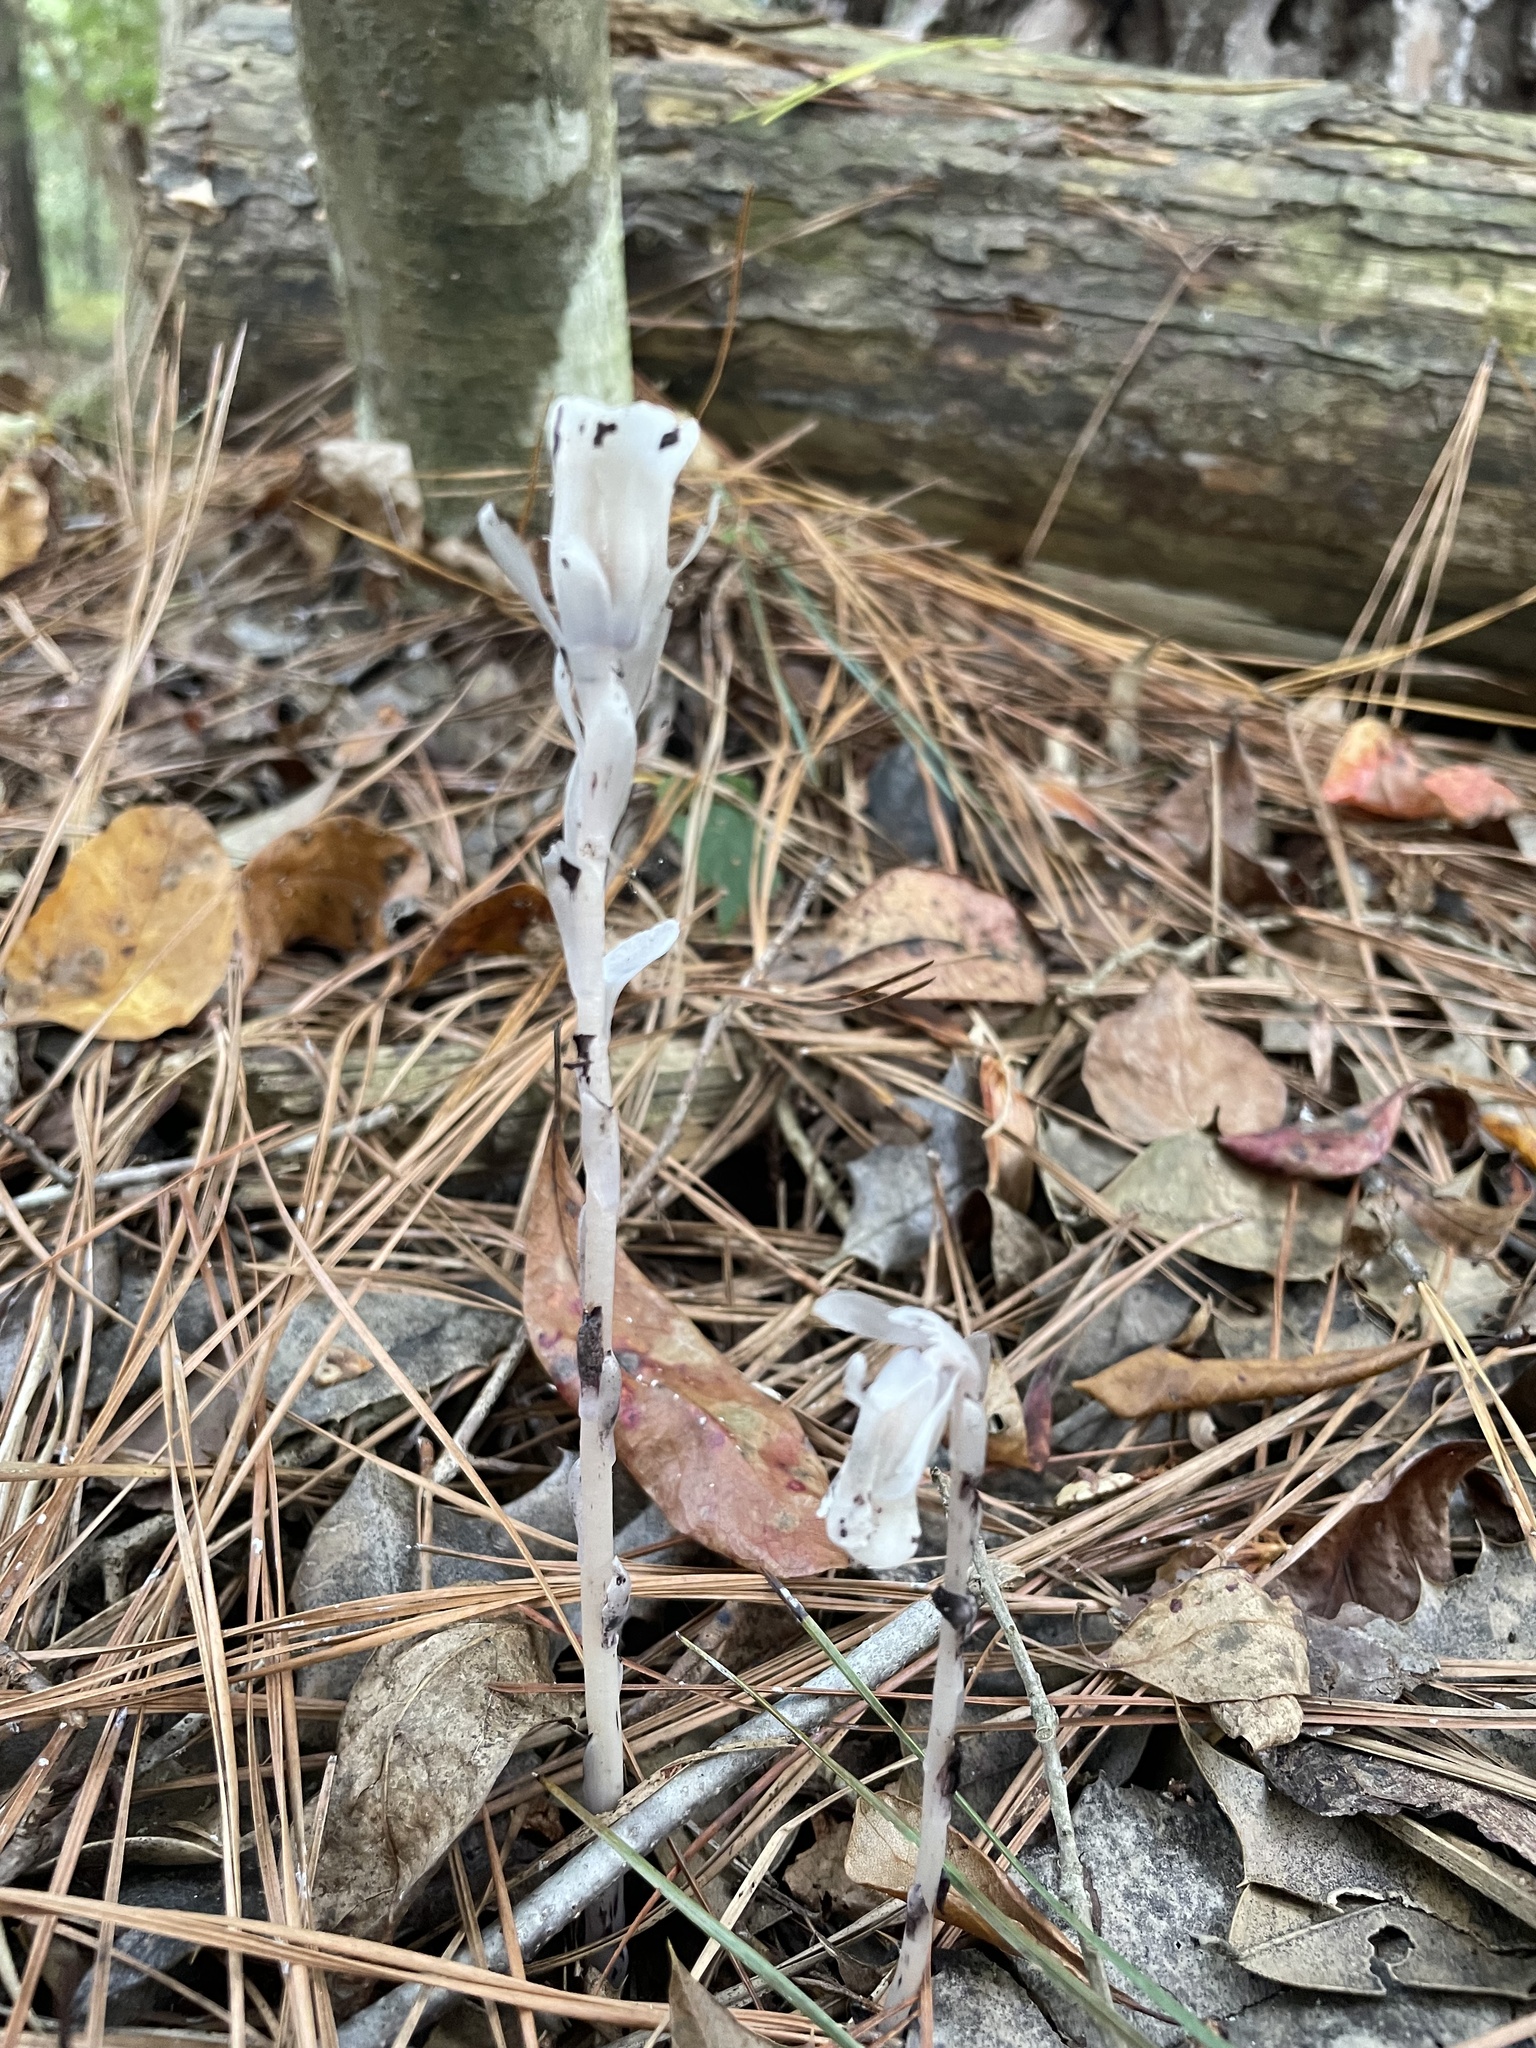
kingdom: Plantae
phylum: Tracheophyta
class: Magnoliopsida
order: Ericales
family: Ericaceae
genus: Monotropa
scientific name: Monotropa uniflora
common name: Convulsion root
